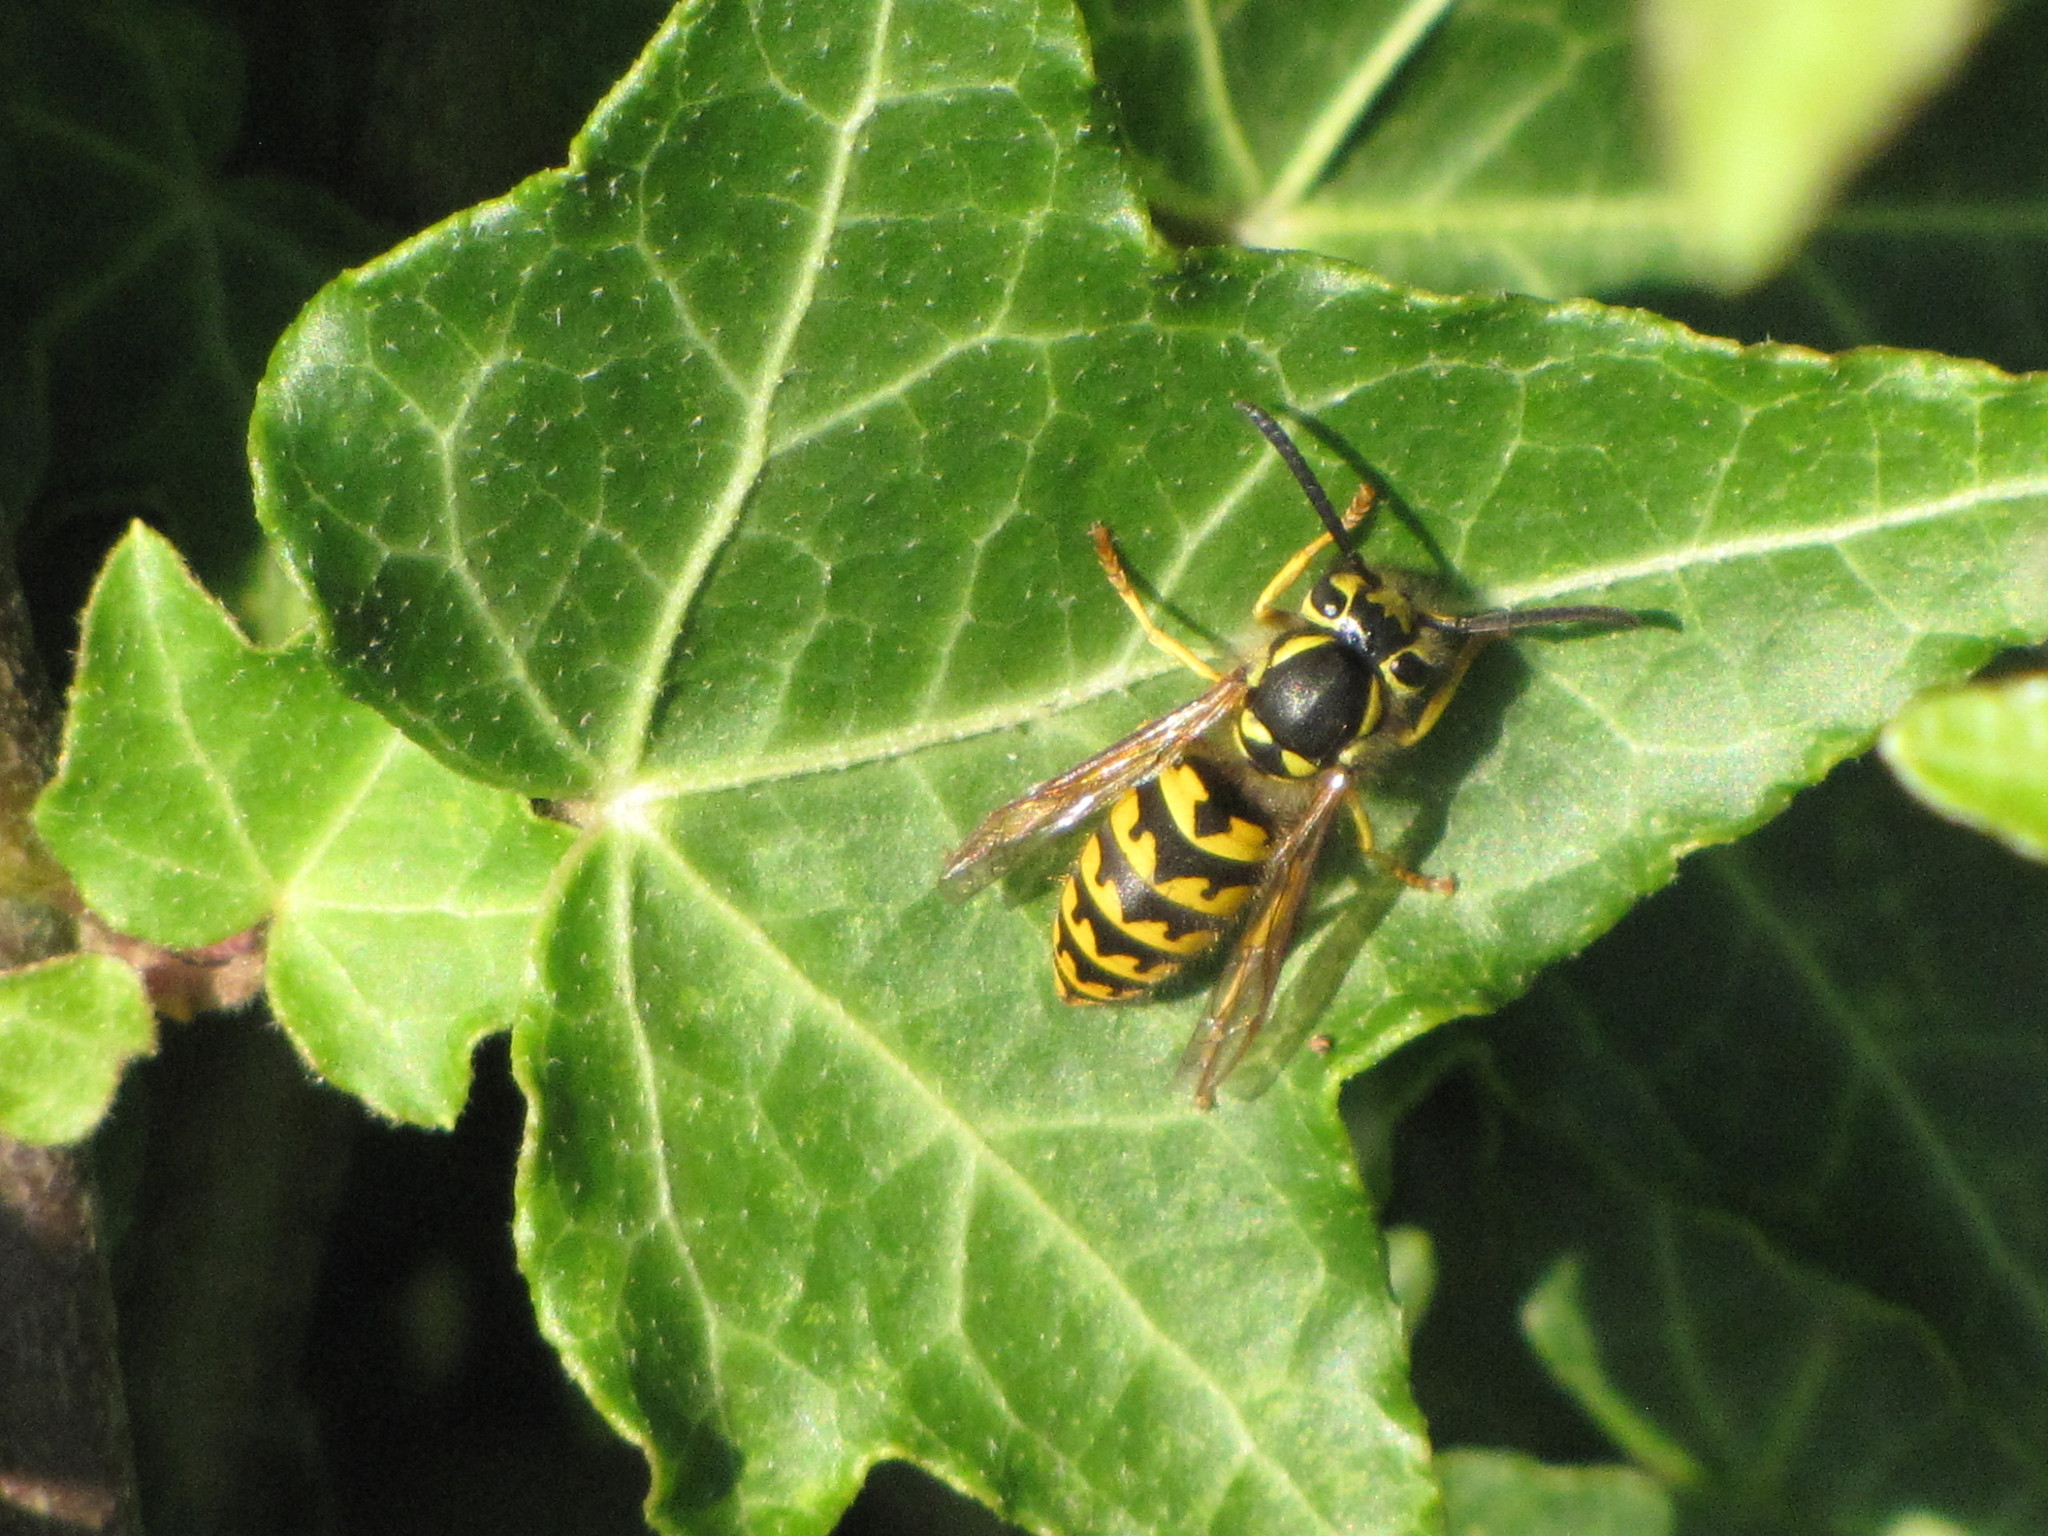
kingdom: Animalia
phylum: Arthropoda
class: Insecta
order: Hymenoptera
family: Vespidae
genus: Vespula
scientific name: Vespula pensylvanica
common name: Western yellowjacket
